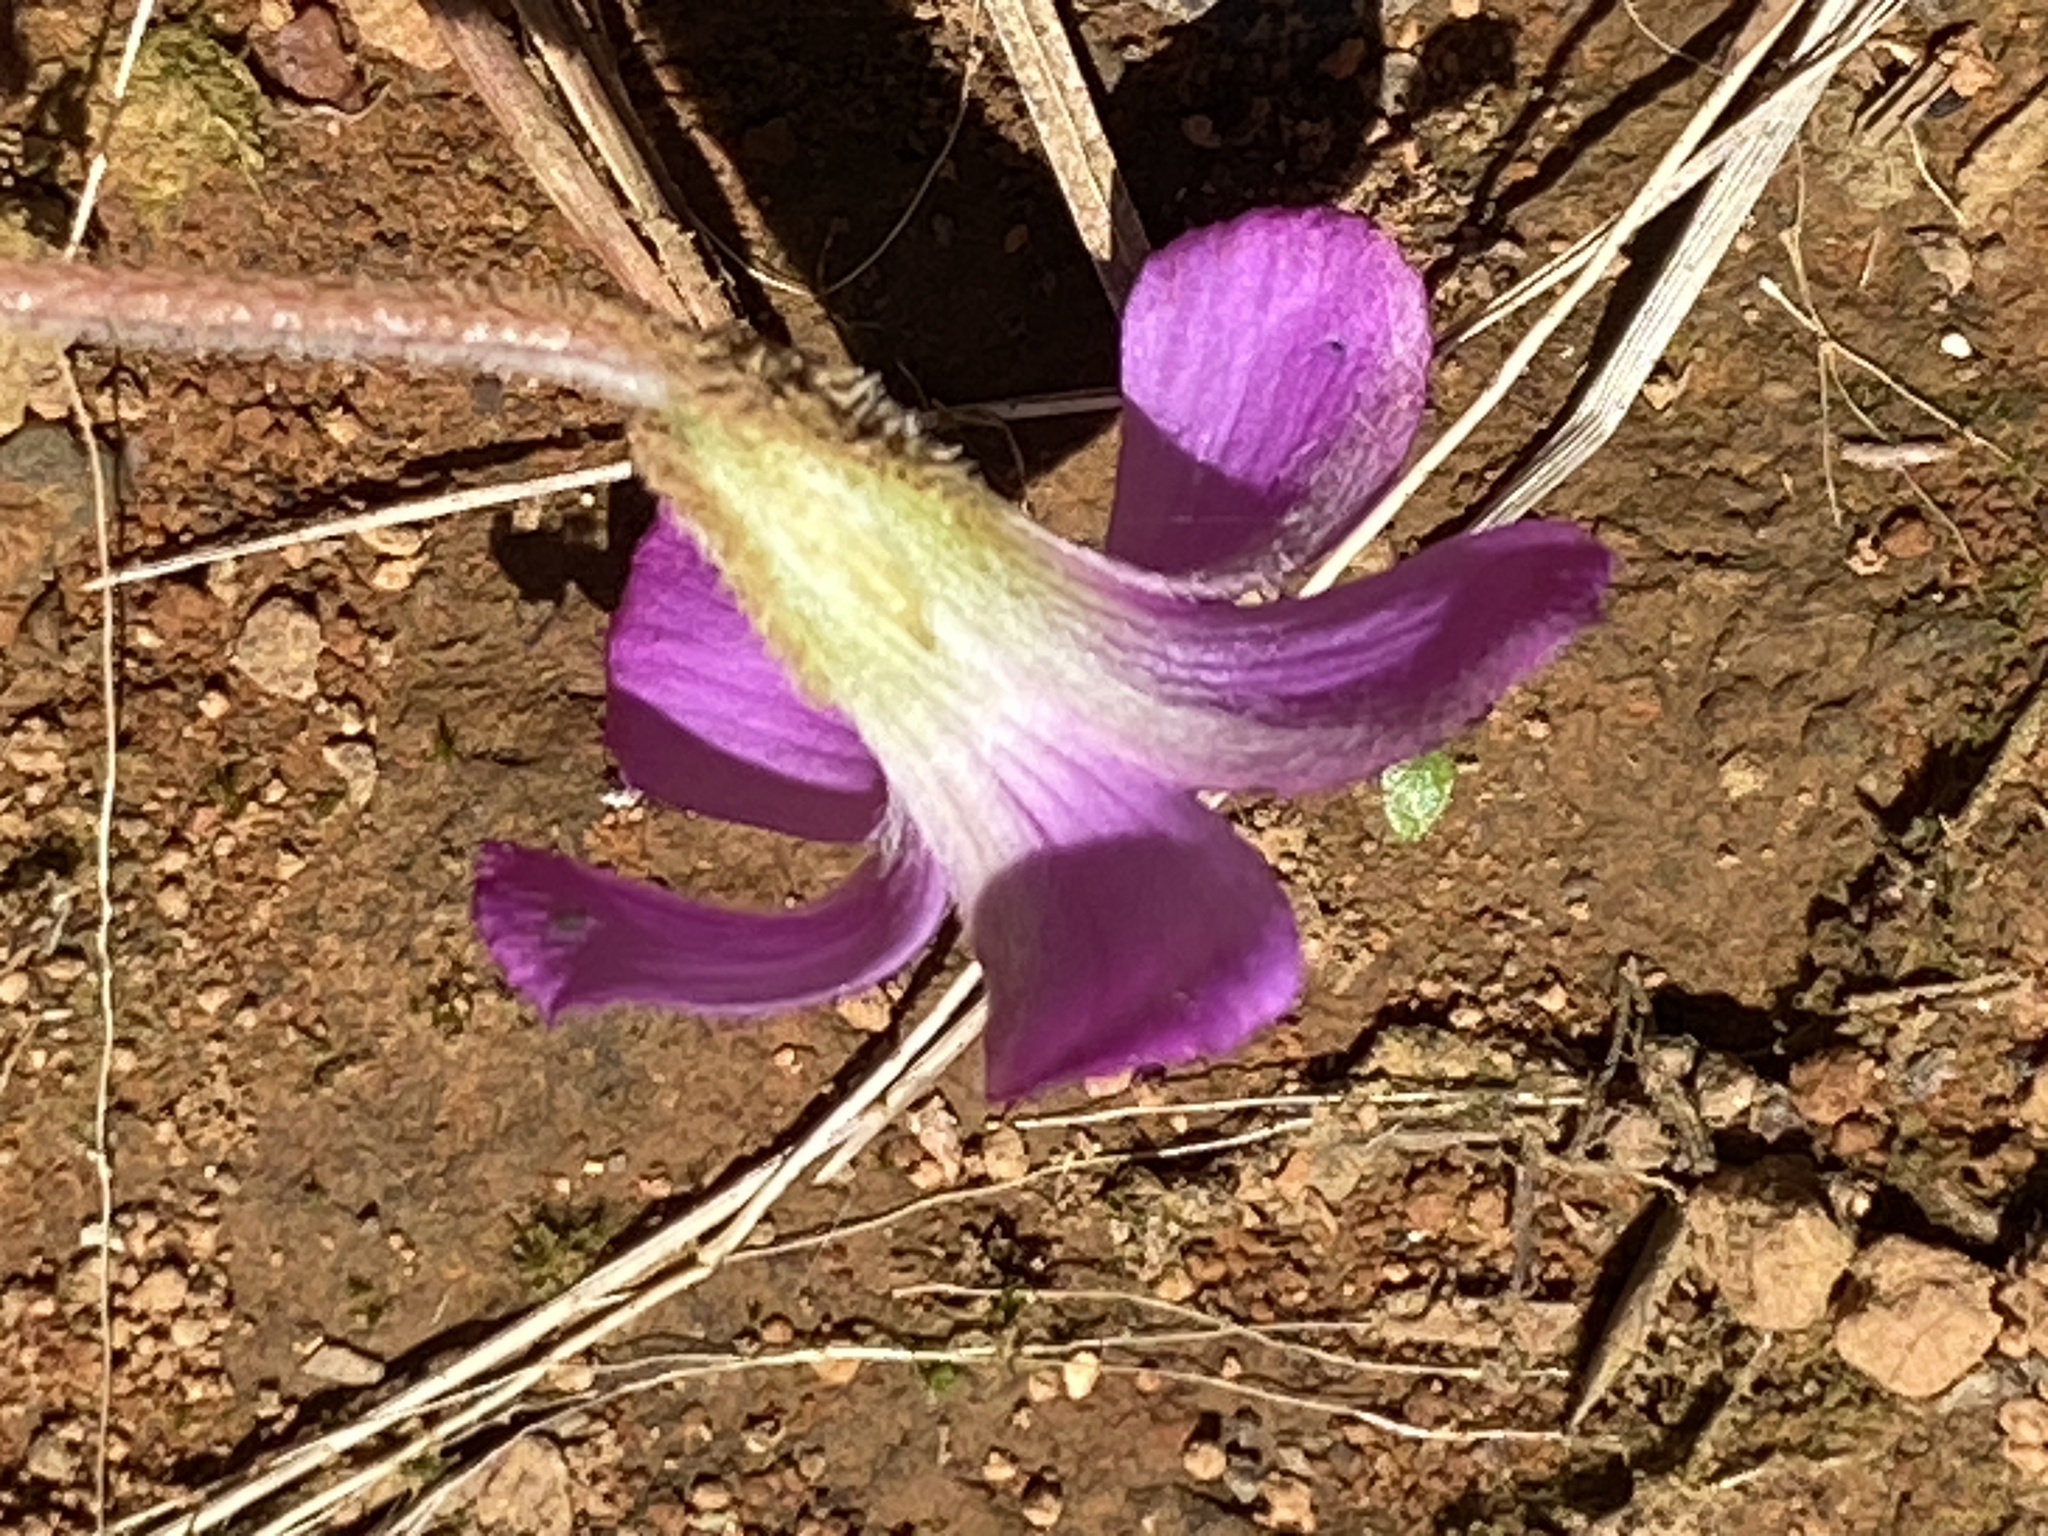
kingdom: Plantae
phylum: Tracheophyta
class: Magnoliopsida
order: Oxalidales
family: Oxalidaceae
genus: Oxalis
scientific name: Oxalis truncatula
